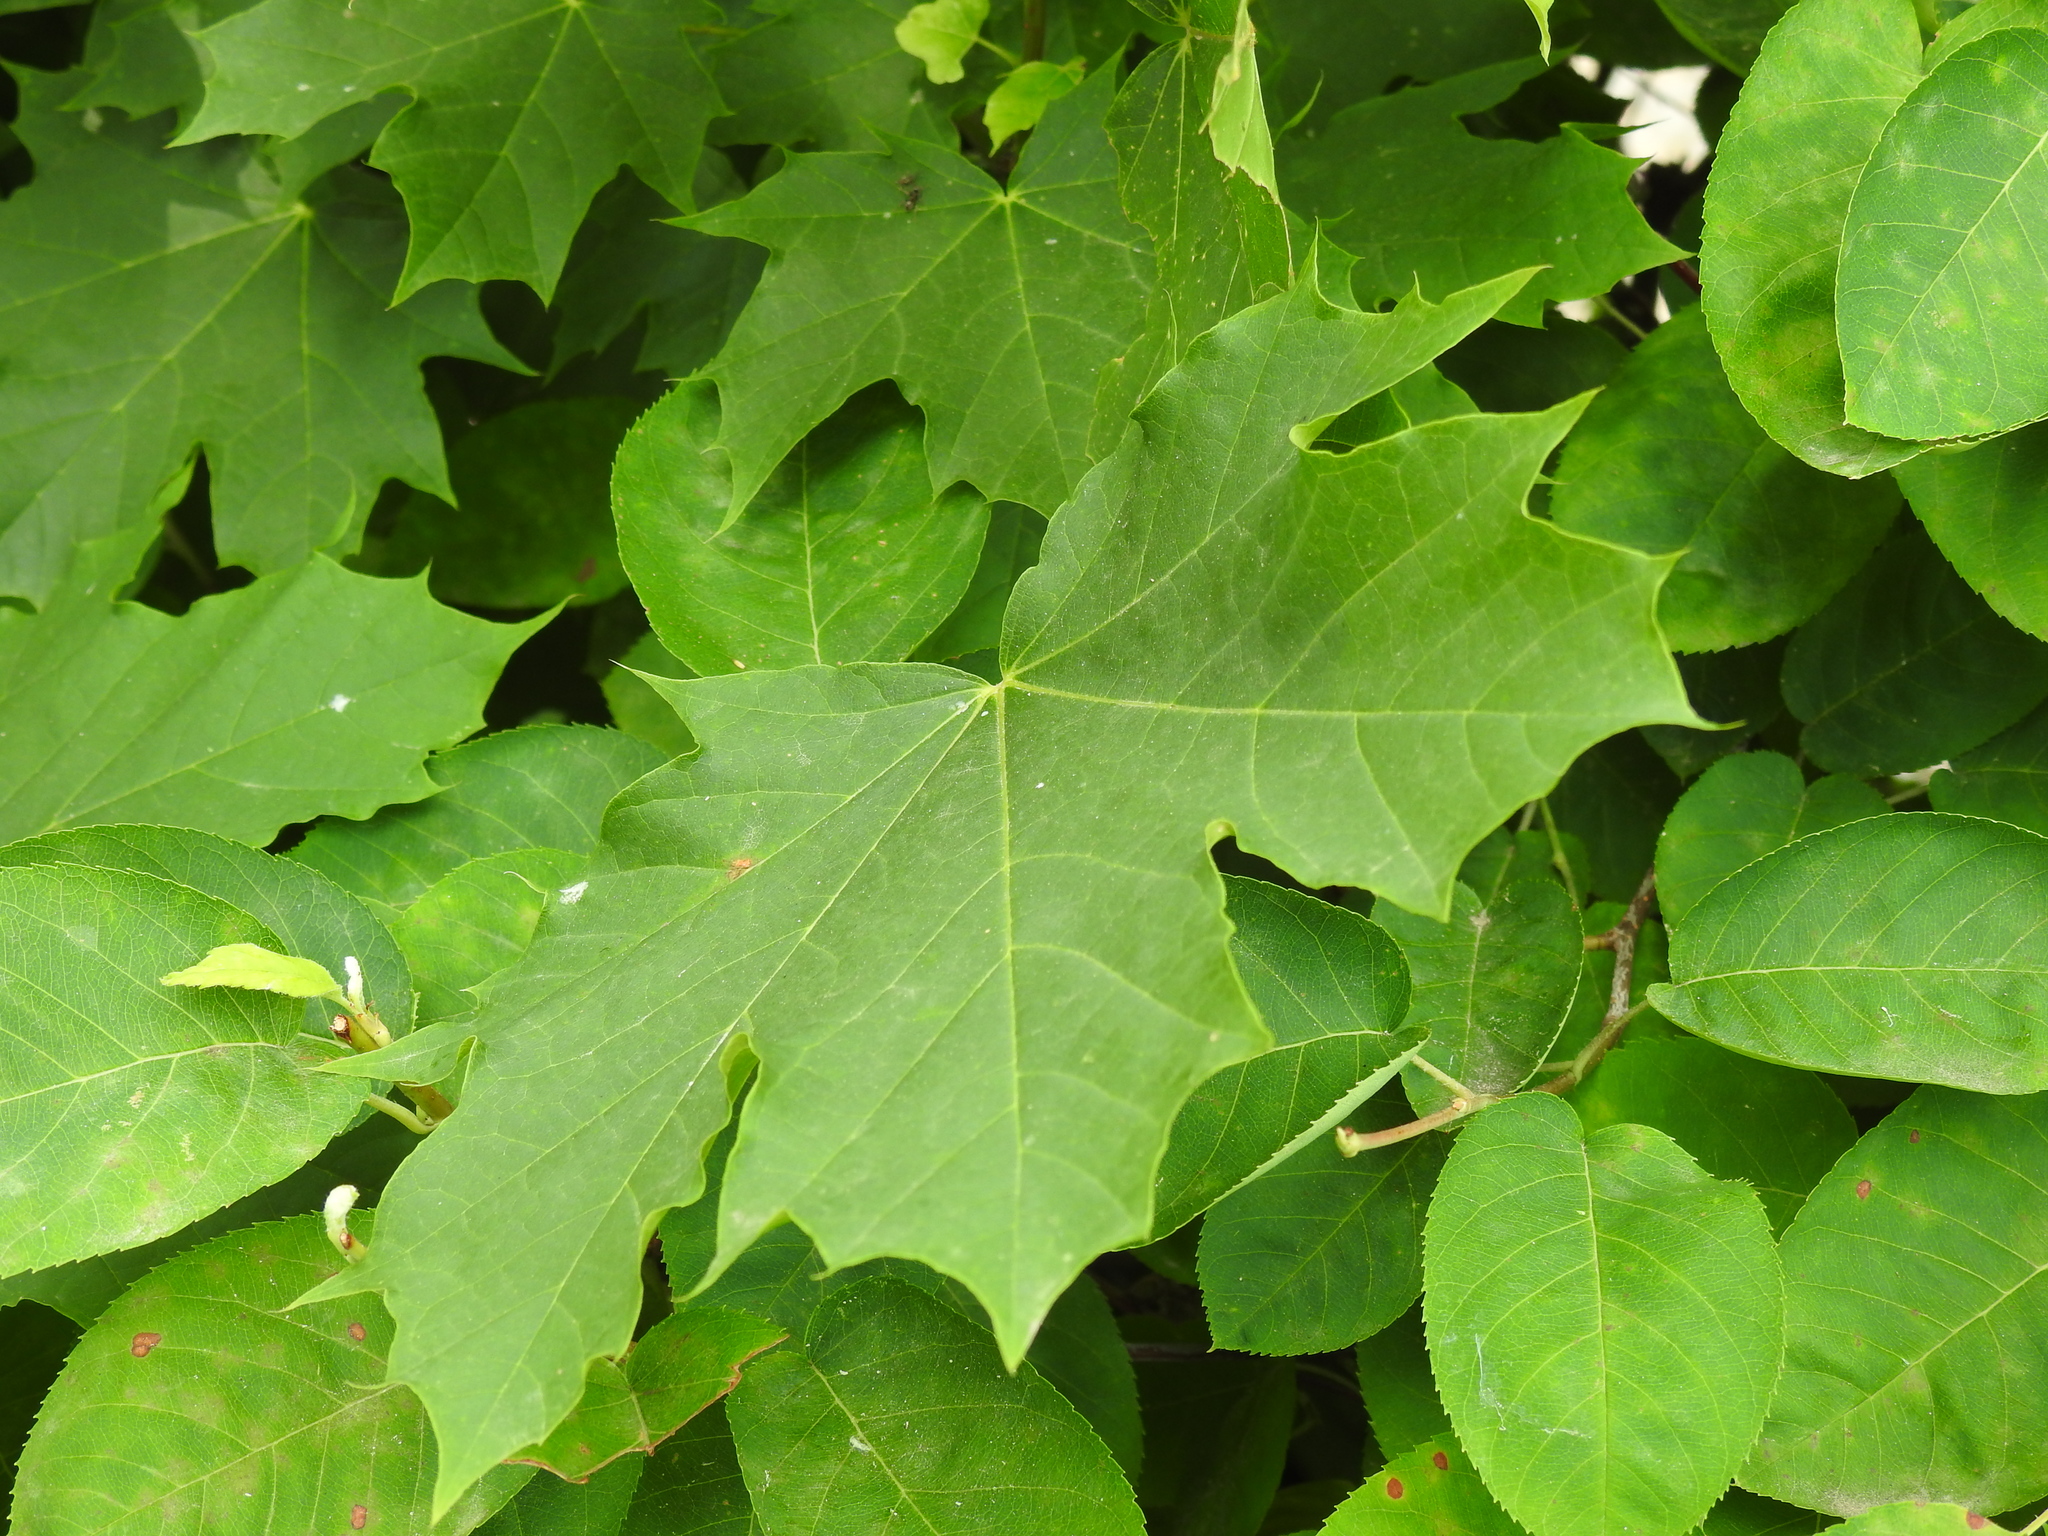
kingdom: Plantae
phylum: Tracheophyta
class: Magnoliopsida
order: Sapindales
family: Sapindaceae
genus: Acer
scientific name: Acer platanoides
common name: Norway maple
